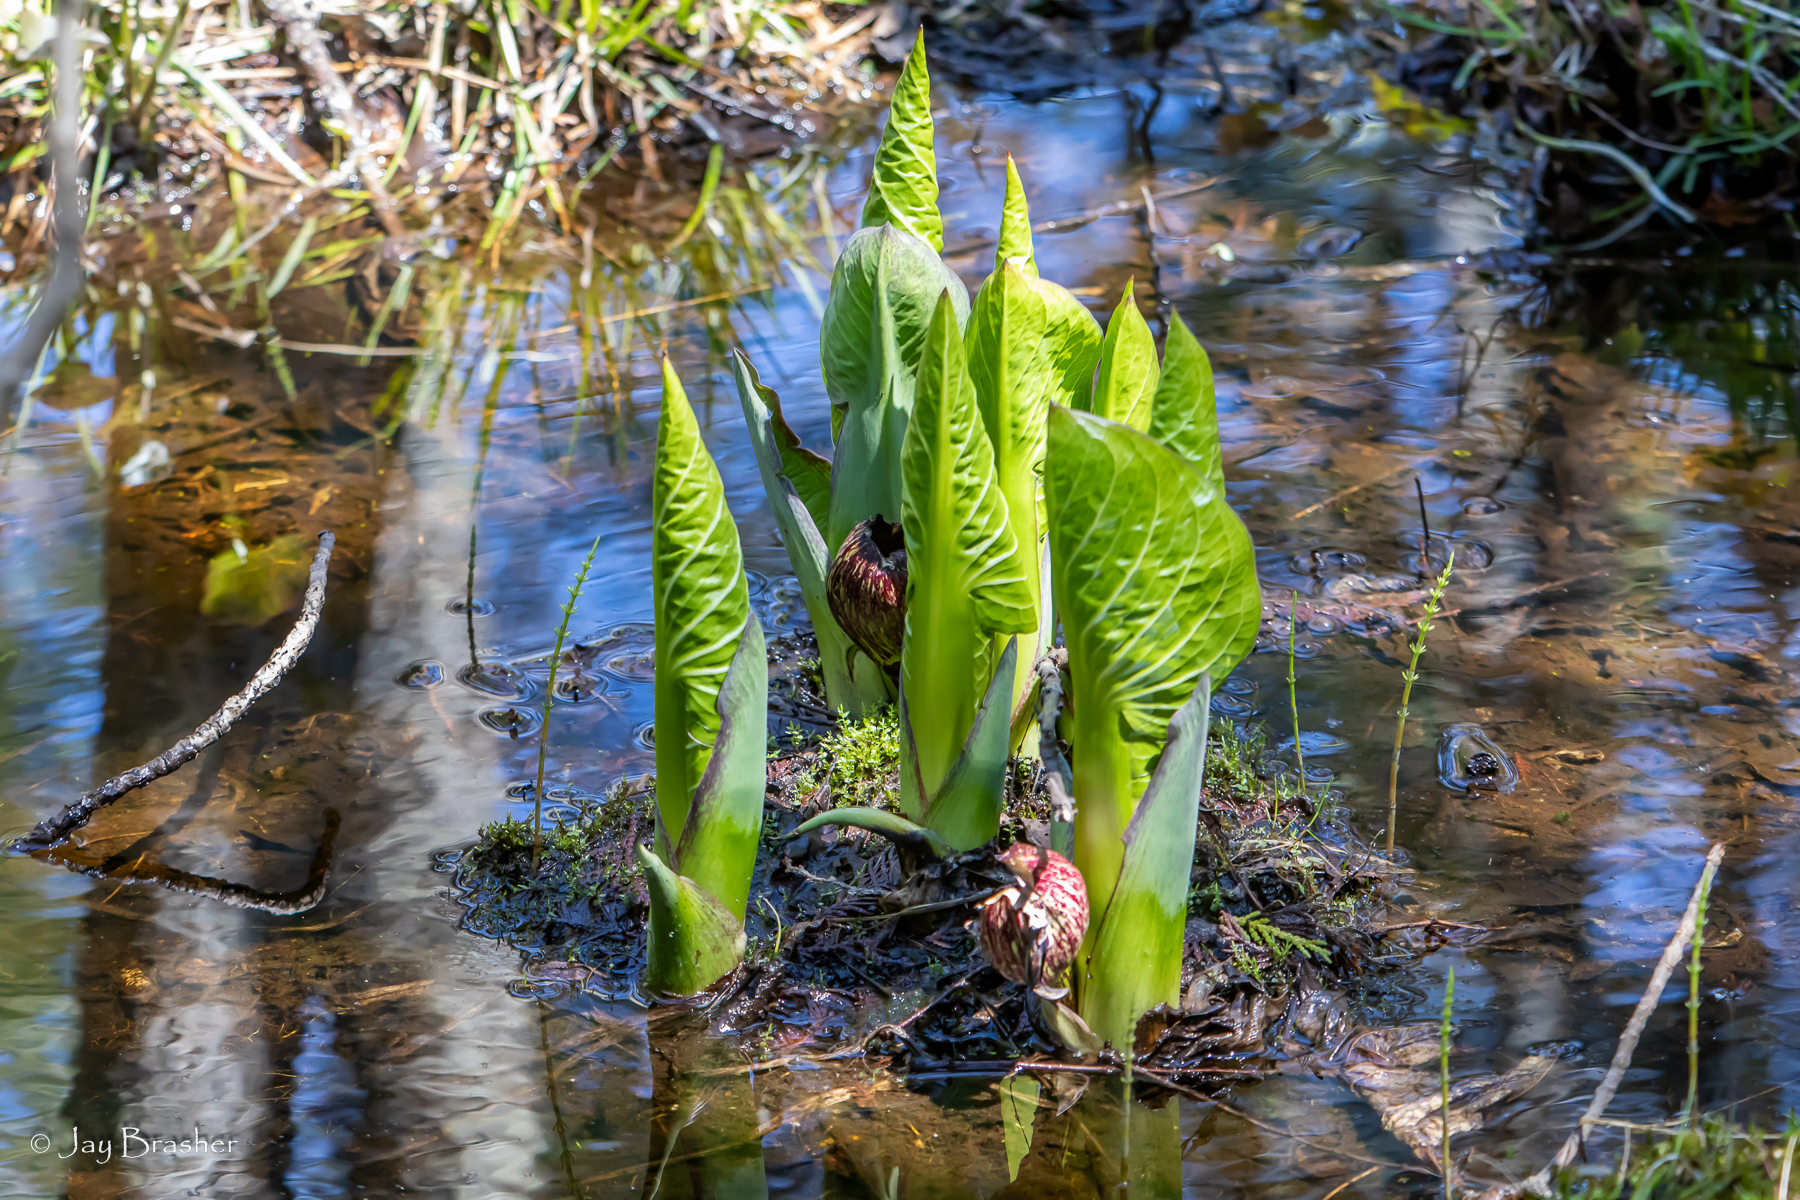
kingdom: Plantae
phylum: Tracheophyta
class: Liliopsida
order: Alismatales
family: Araceae
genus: Symplocarpus
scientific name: Symplocarpus foetidus
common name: Eastern skunk cabbage
